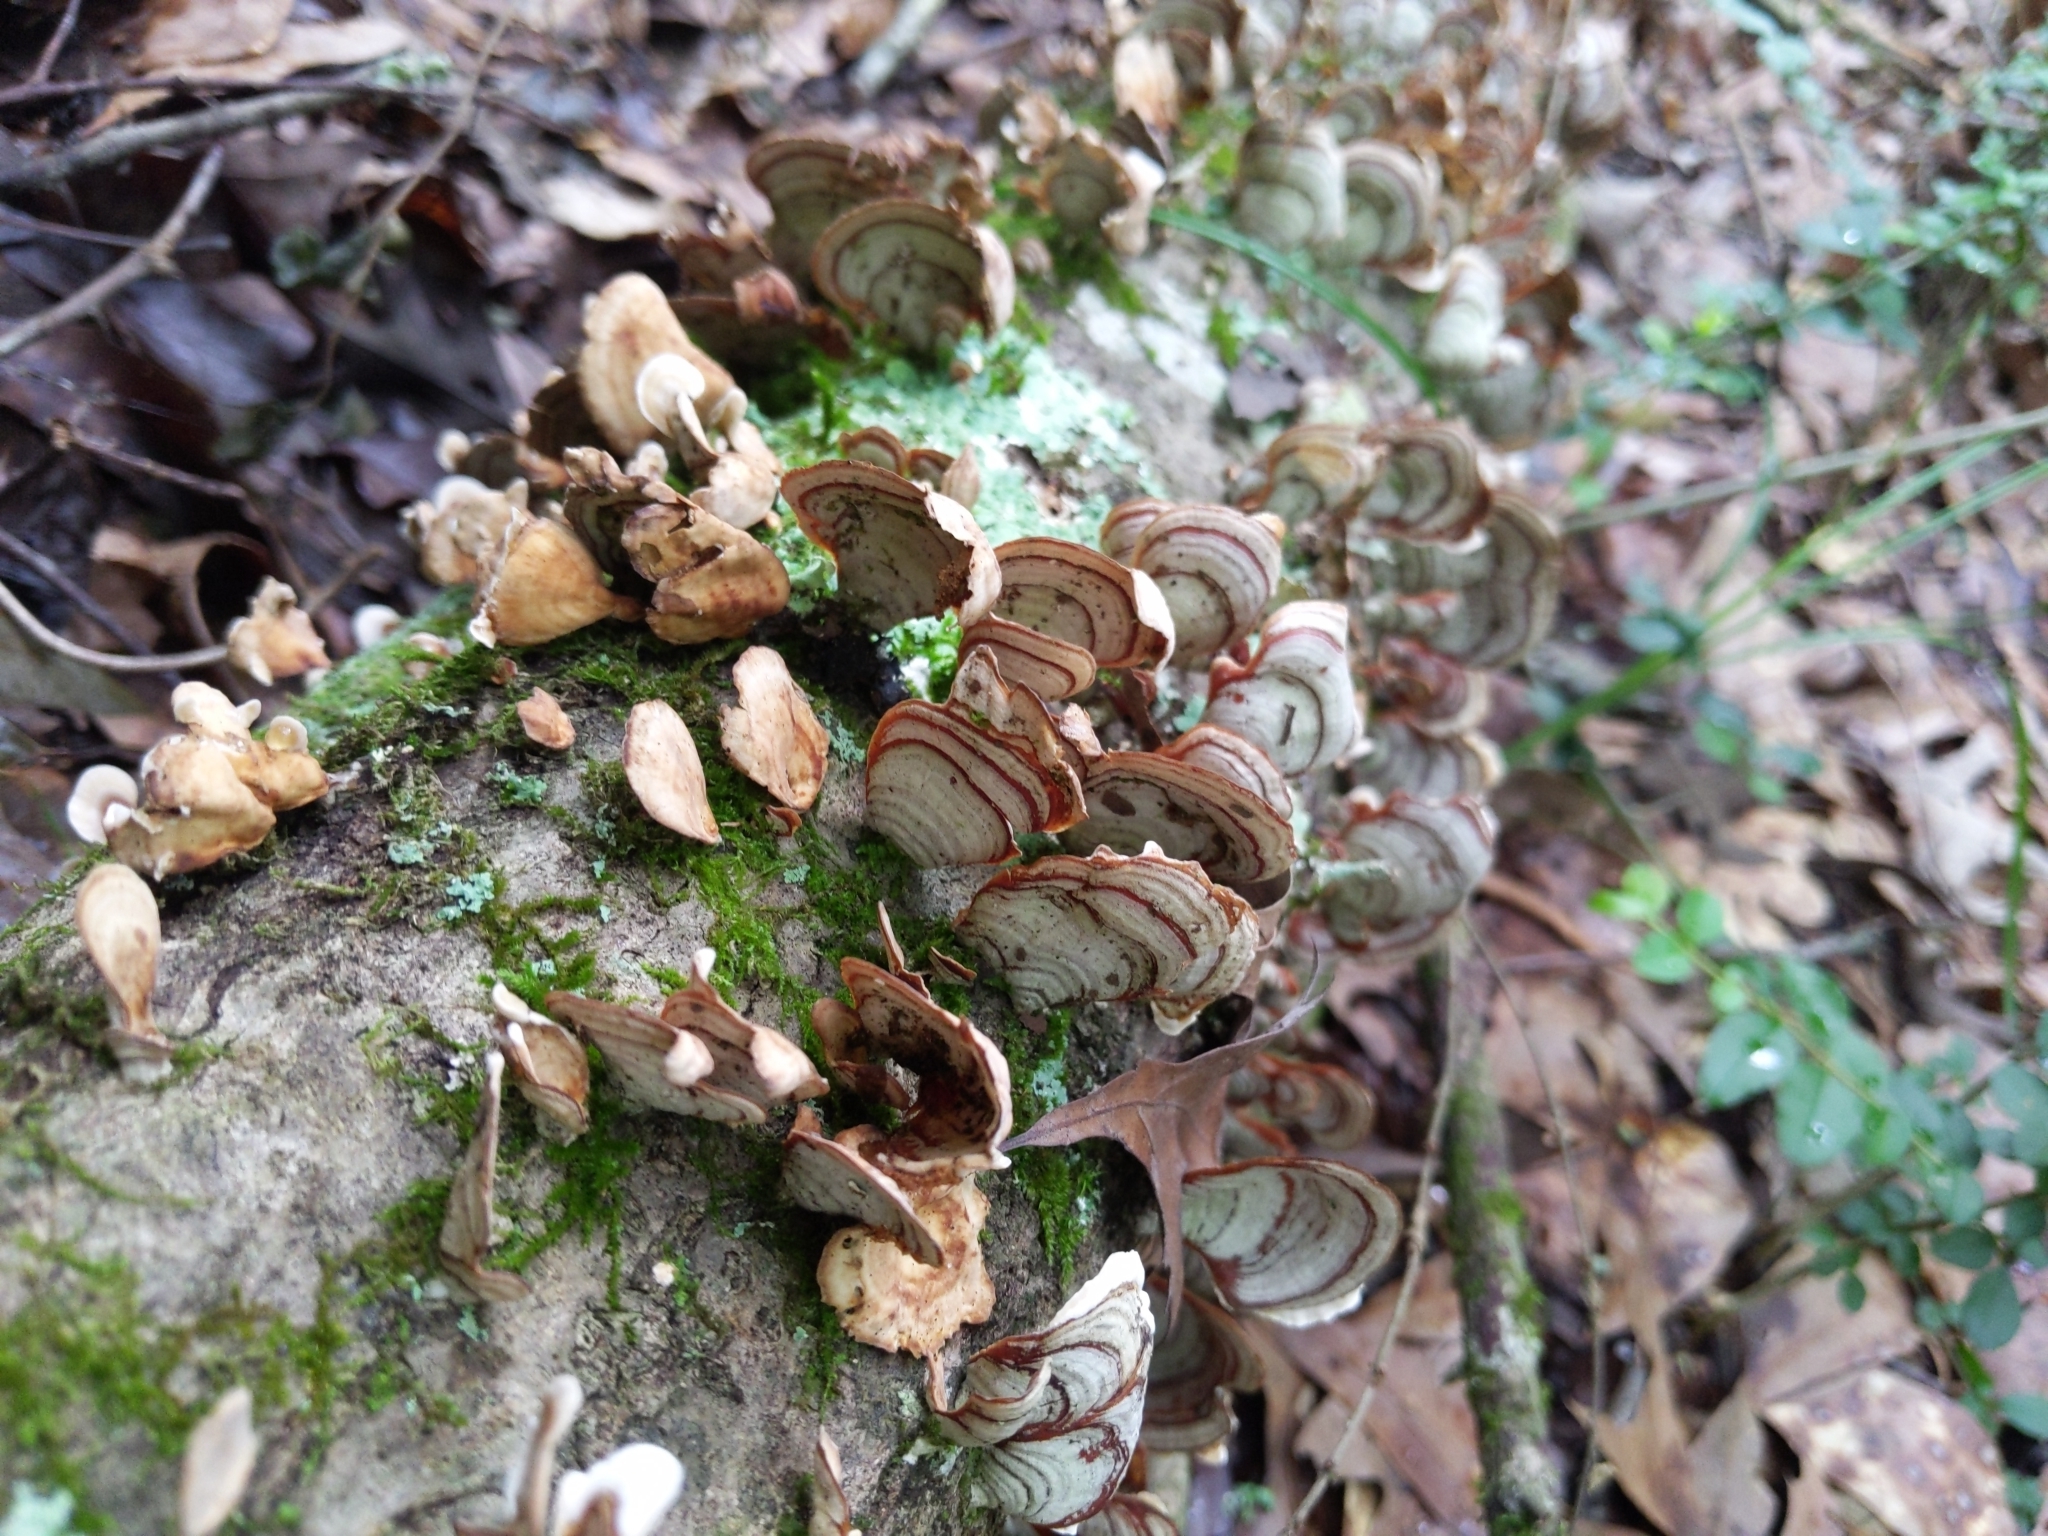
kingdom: Fungi
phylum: Basidiomycota
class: Agaricomycetes
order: Russulales
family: Stereaceae
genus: Stereum
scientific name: Stereum ostrea
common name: False turkeytail
